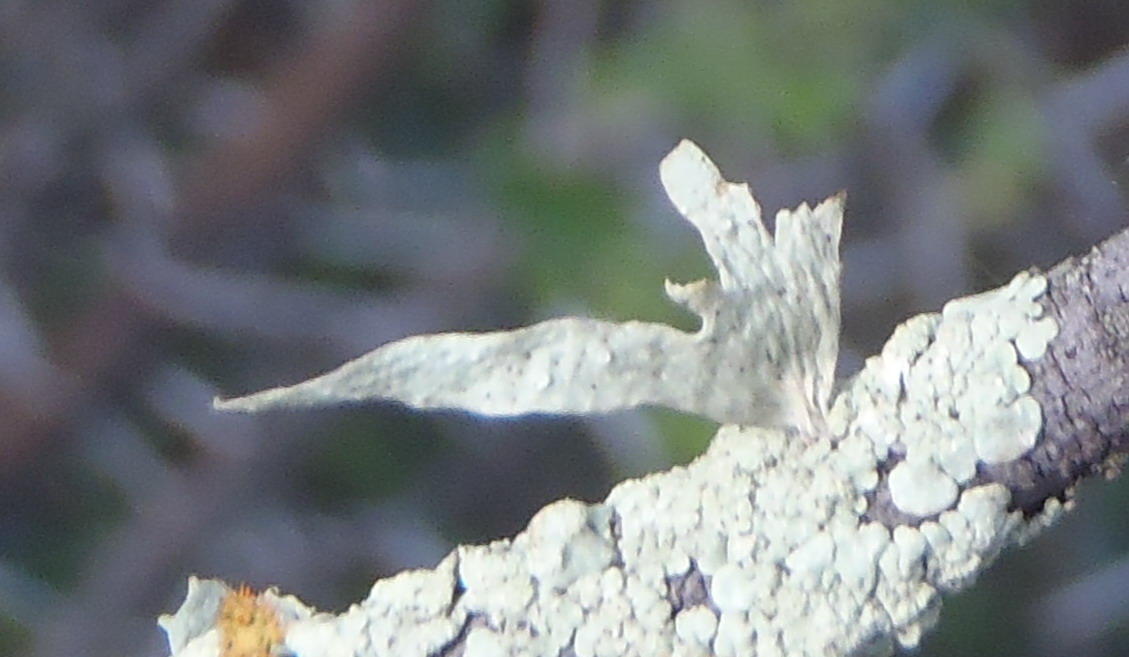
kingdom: Fungi
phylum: Ascomycota
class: Lecanoromycetes
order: Lecanorales
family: Ramalinaceae
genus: Ramalina
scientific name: Ramalina celastri
